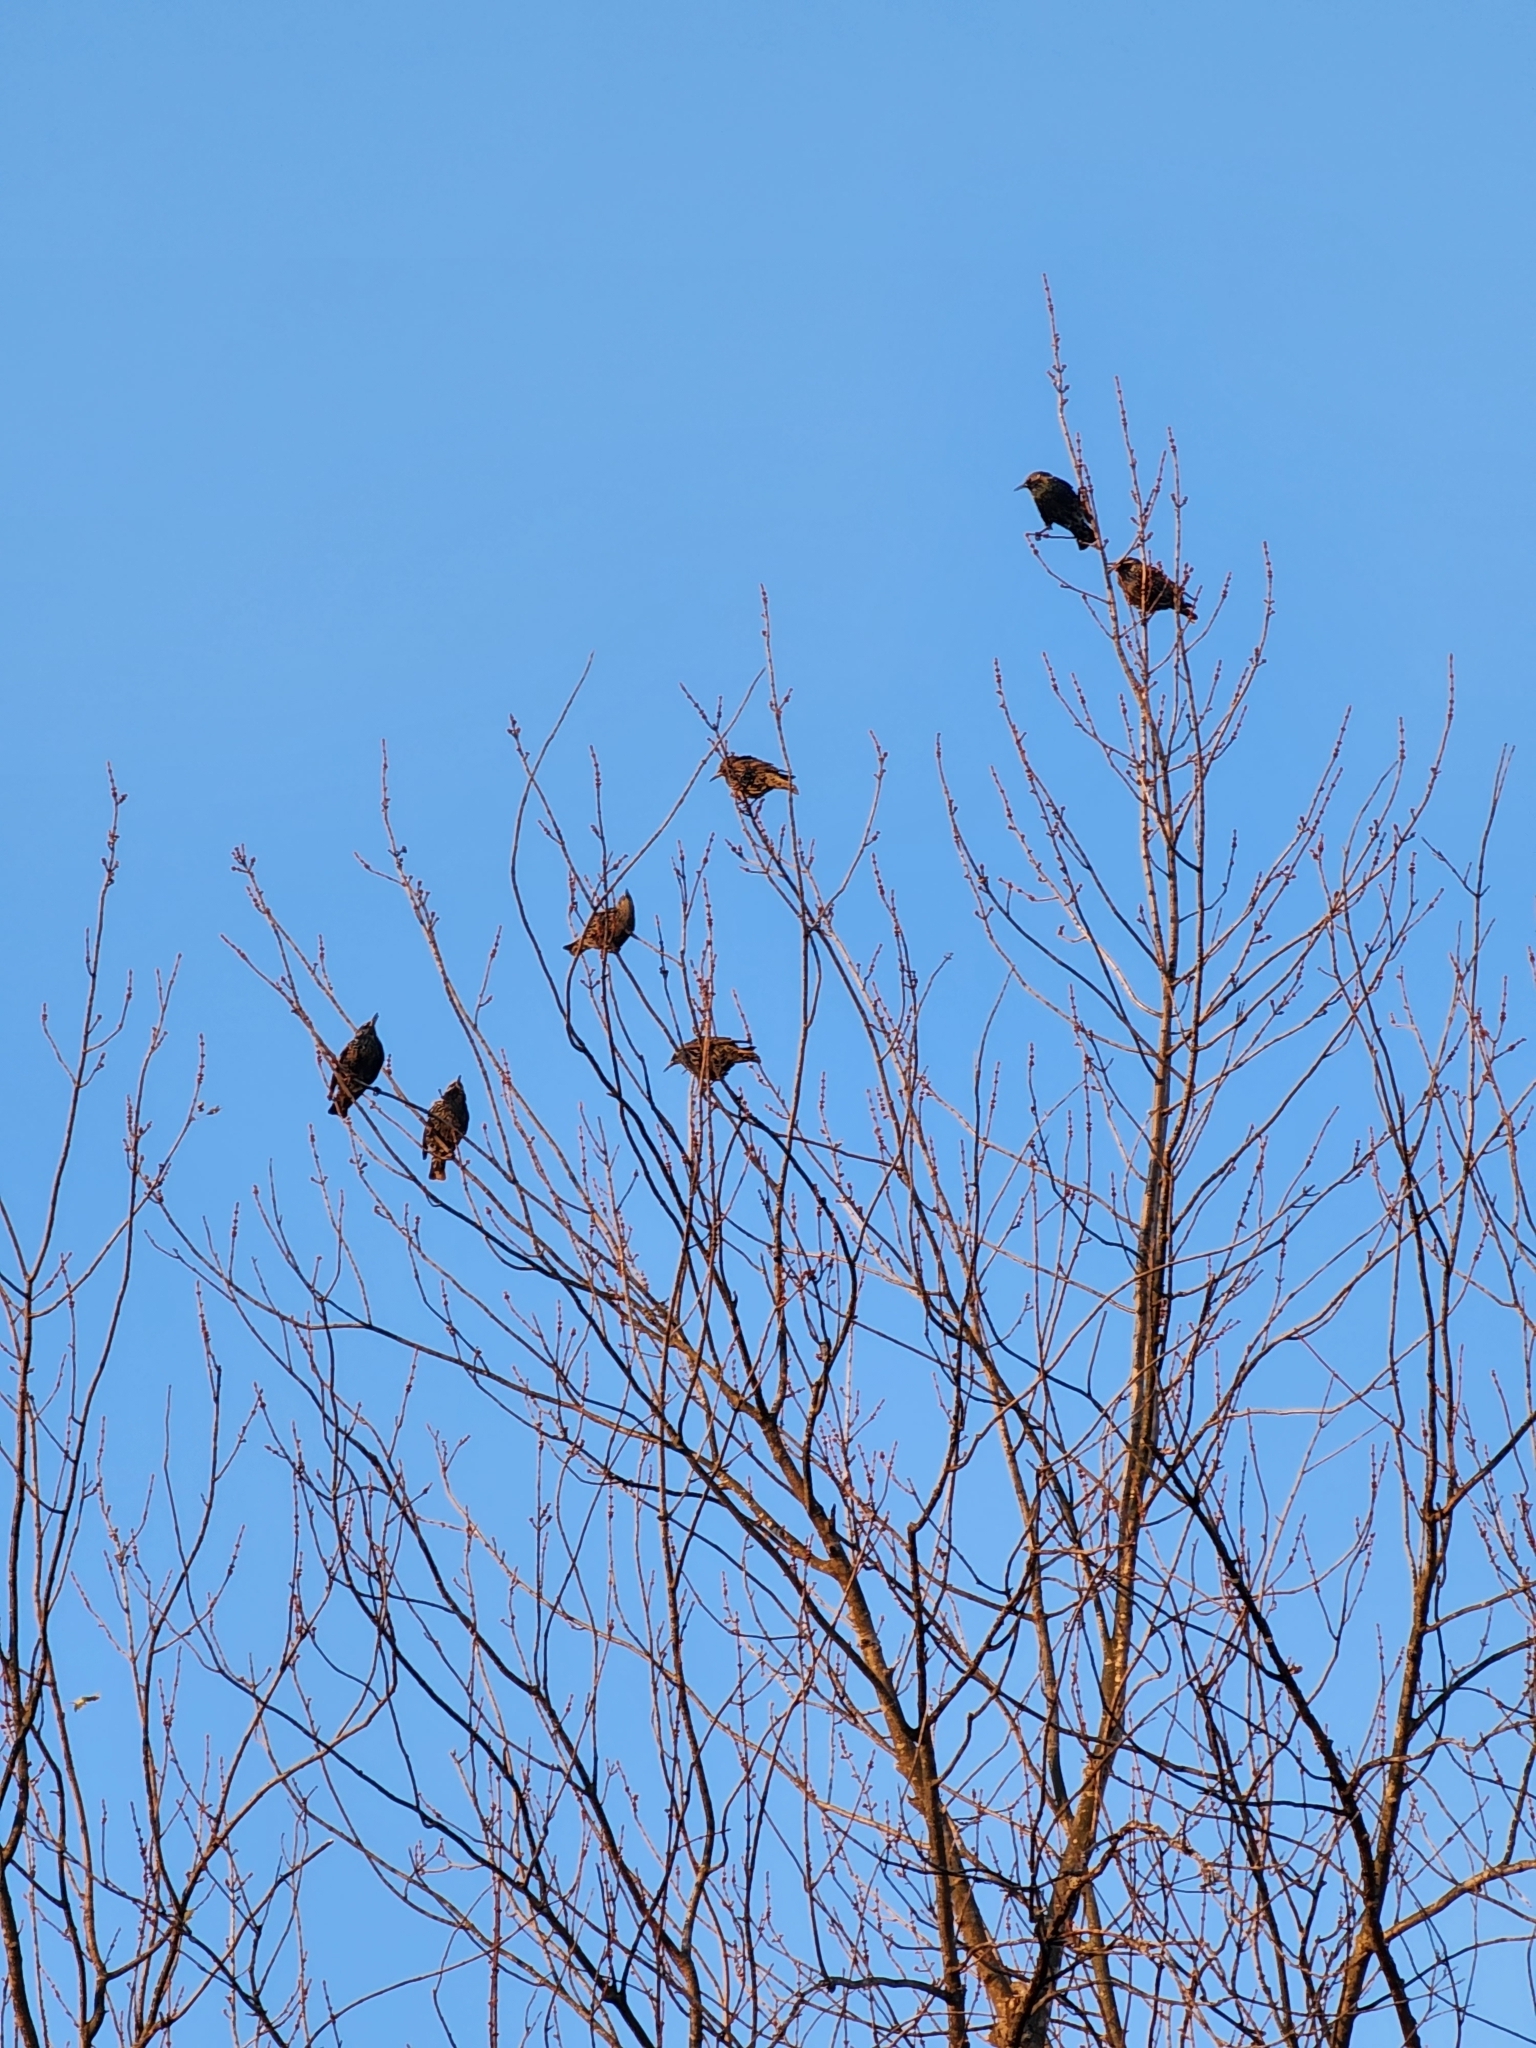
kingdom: Animalia
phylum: Chordata
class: Aves
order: Passeriformes
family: Sturnidae
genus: Sturnus
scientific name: Sturnus vulgaris
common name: Common starling
